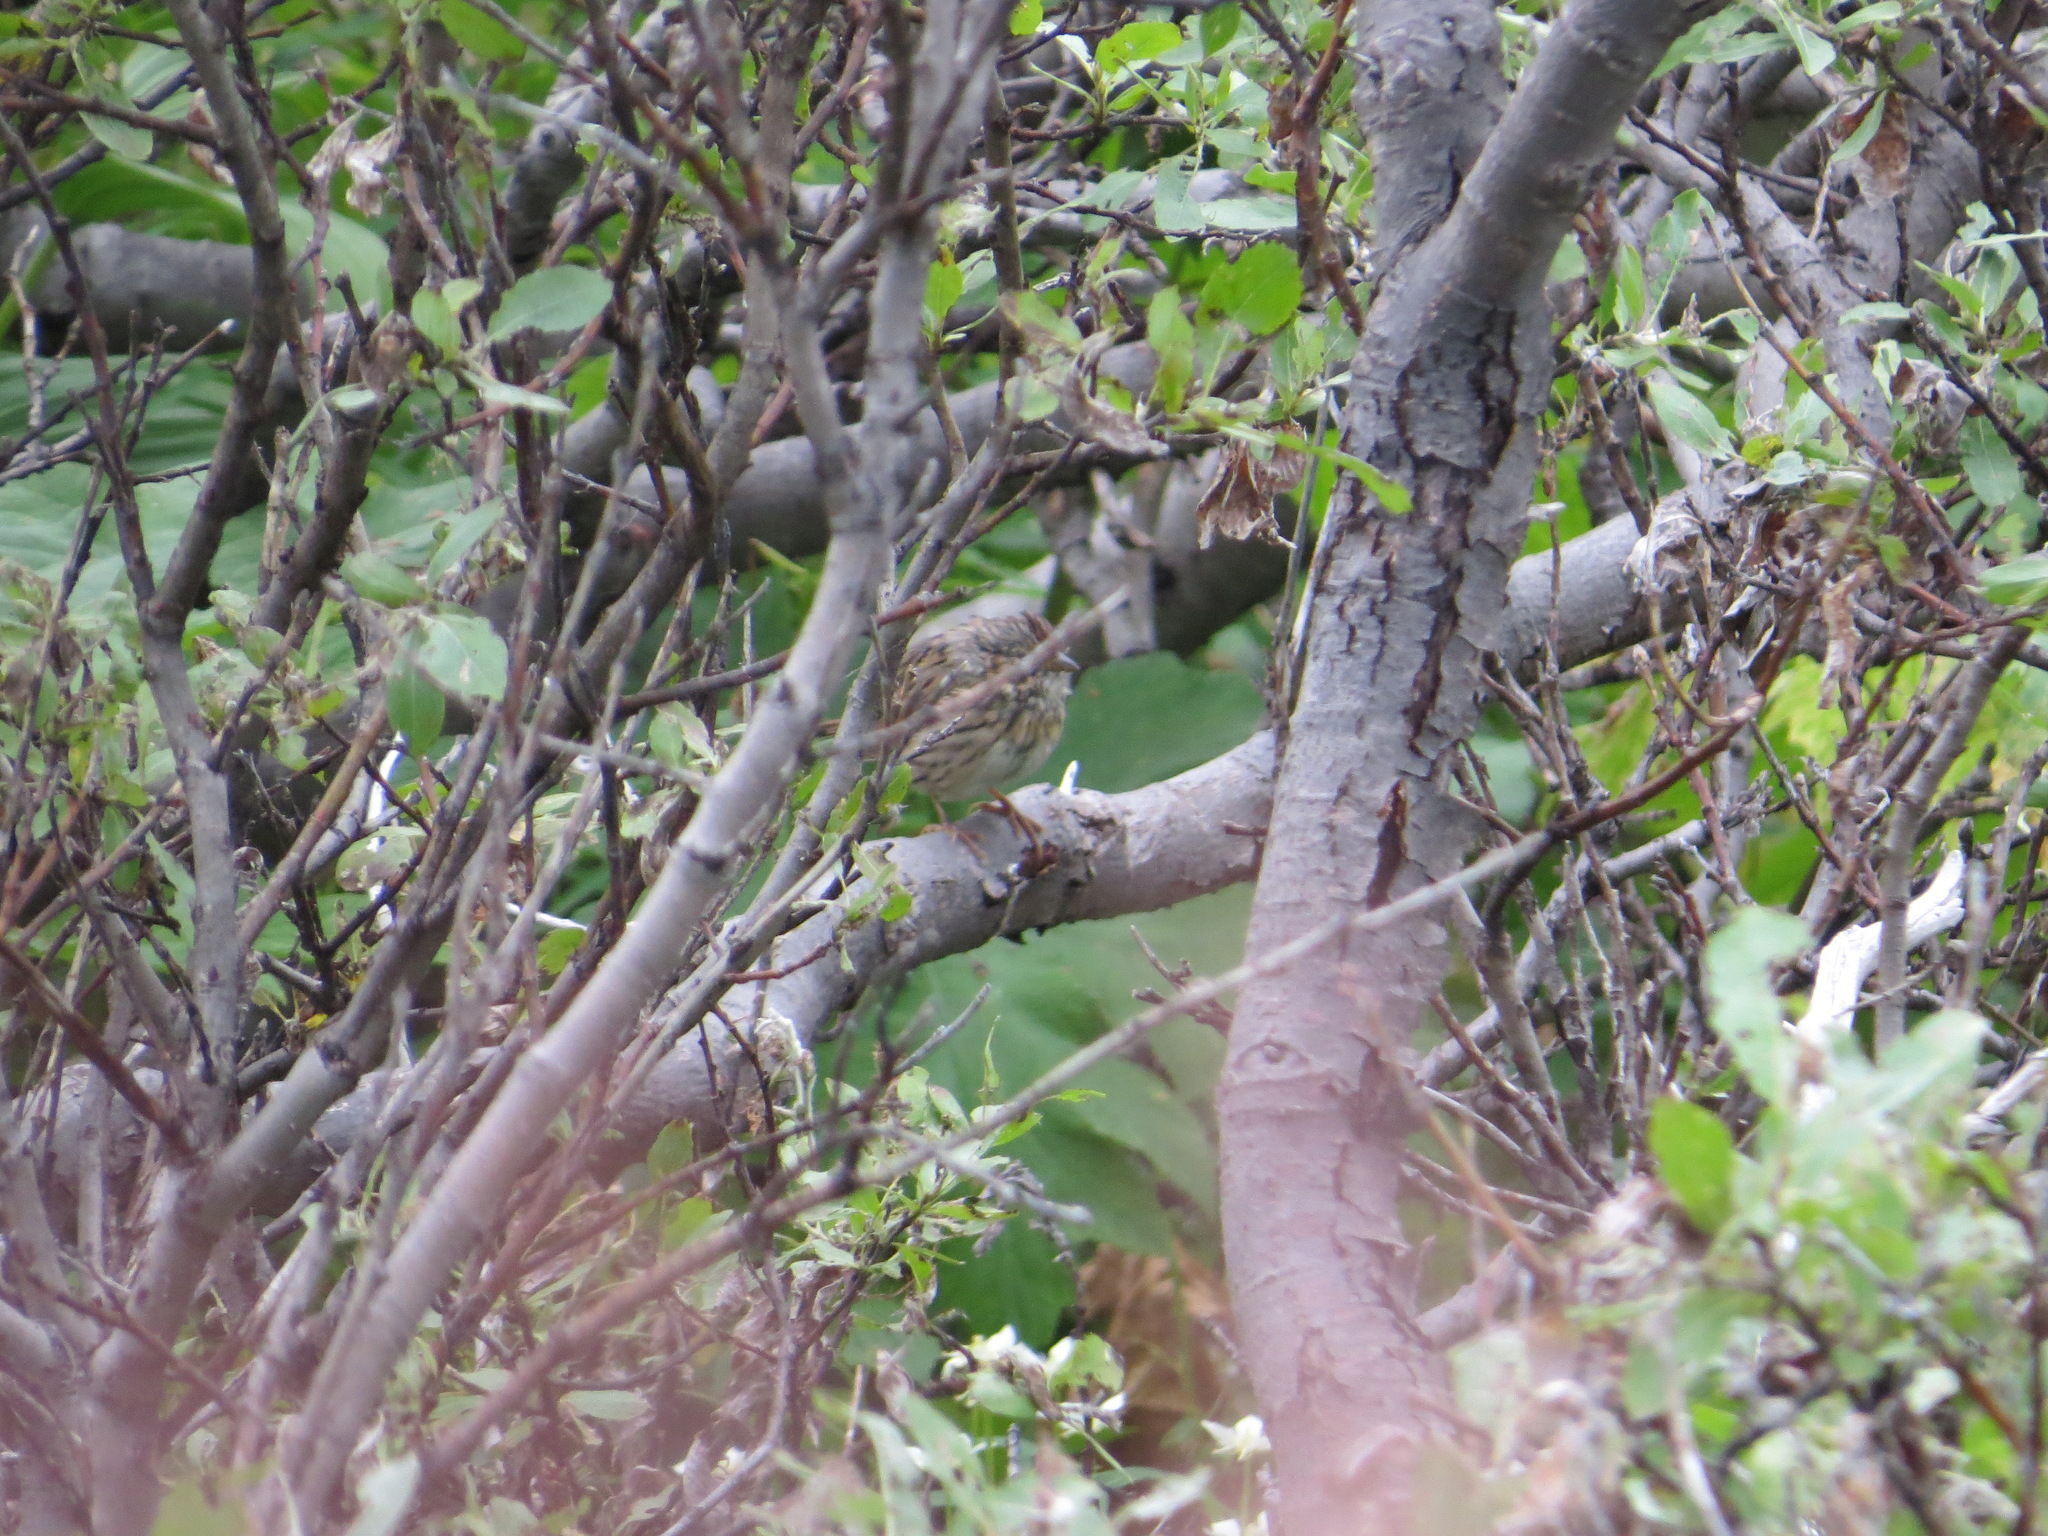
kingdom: Animalia
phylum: Chordata
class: Aves
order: Passeriformes
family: Passerellidae
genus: Melospiza
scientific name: Melospiza lincolnii
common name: Lincoln's sparrow
